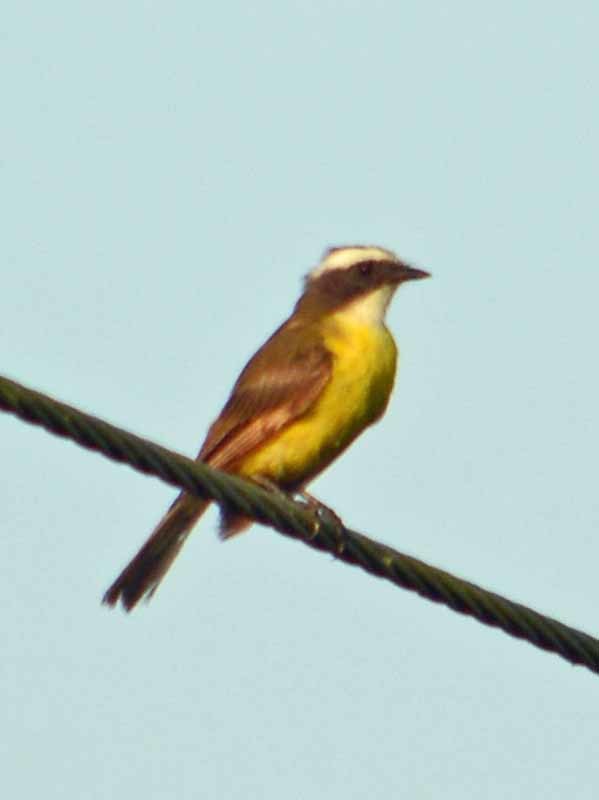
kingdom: Animalia
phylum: Chordata
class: Aves
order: Passeriformes
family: Tyrannidae
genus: Myiozetetes
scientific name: Myiozetetes similis
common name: Social flycatcher
